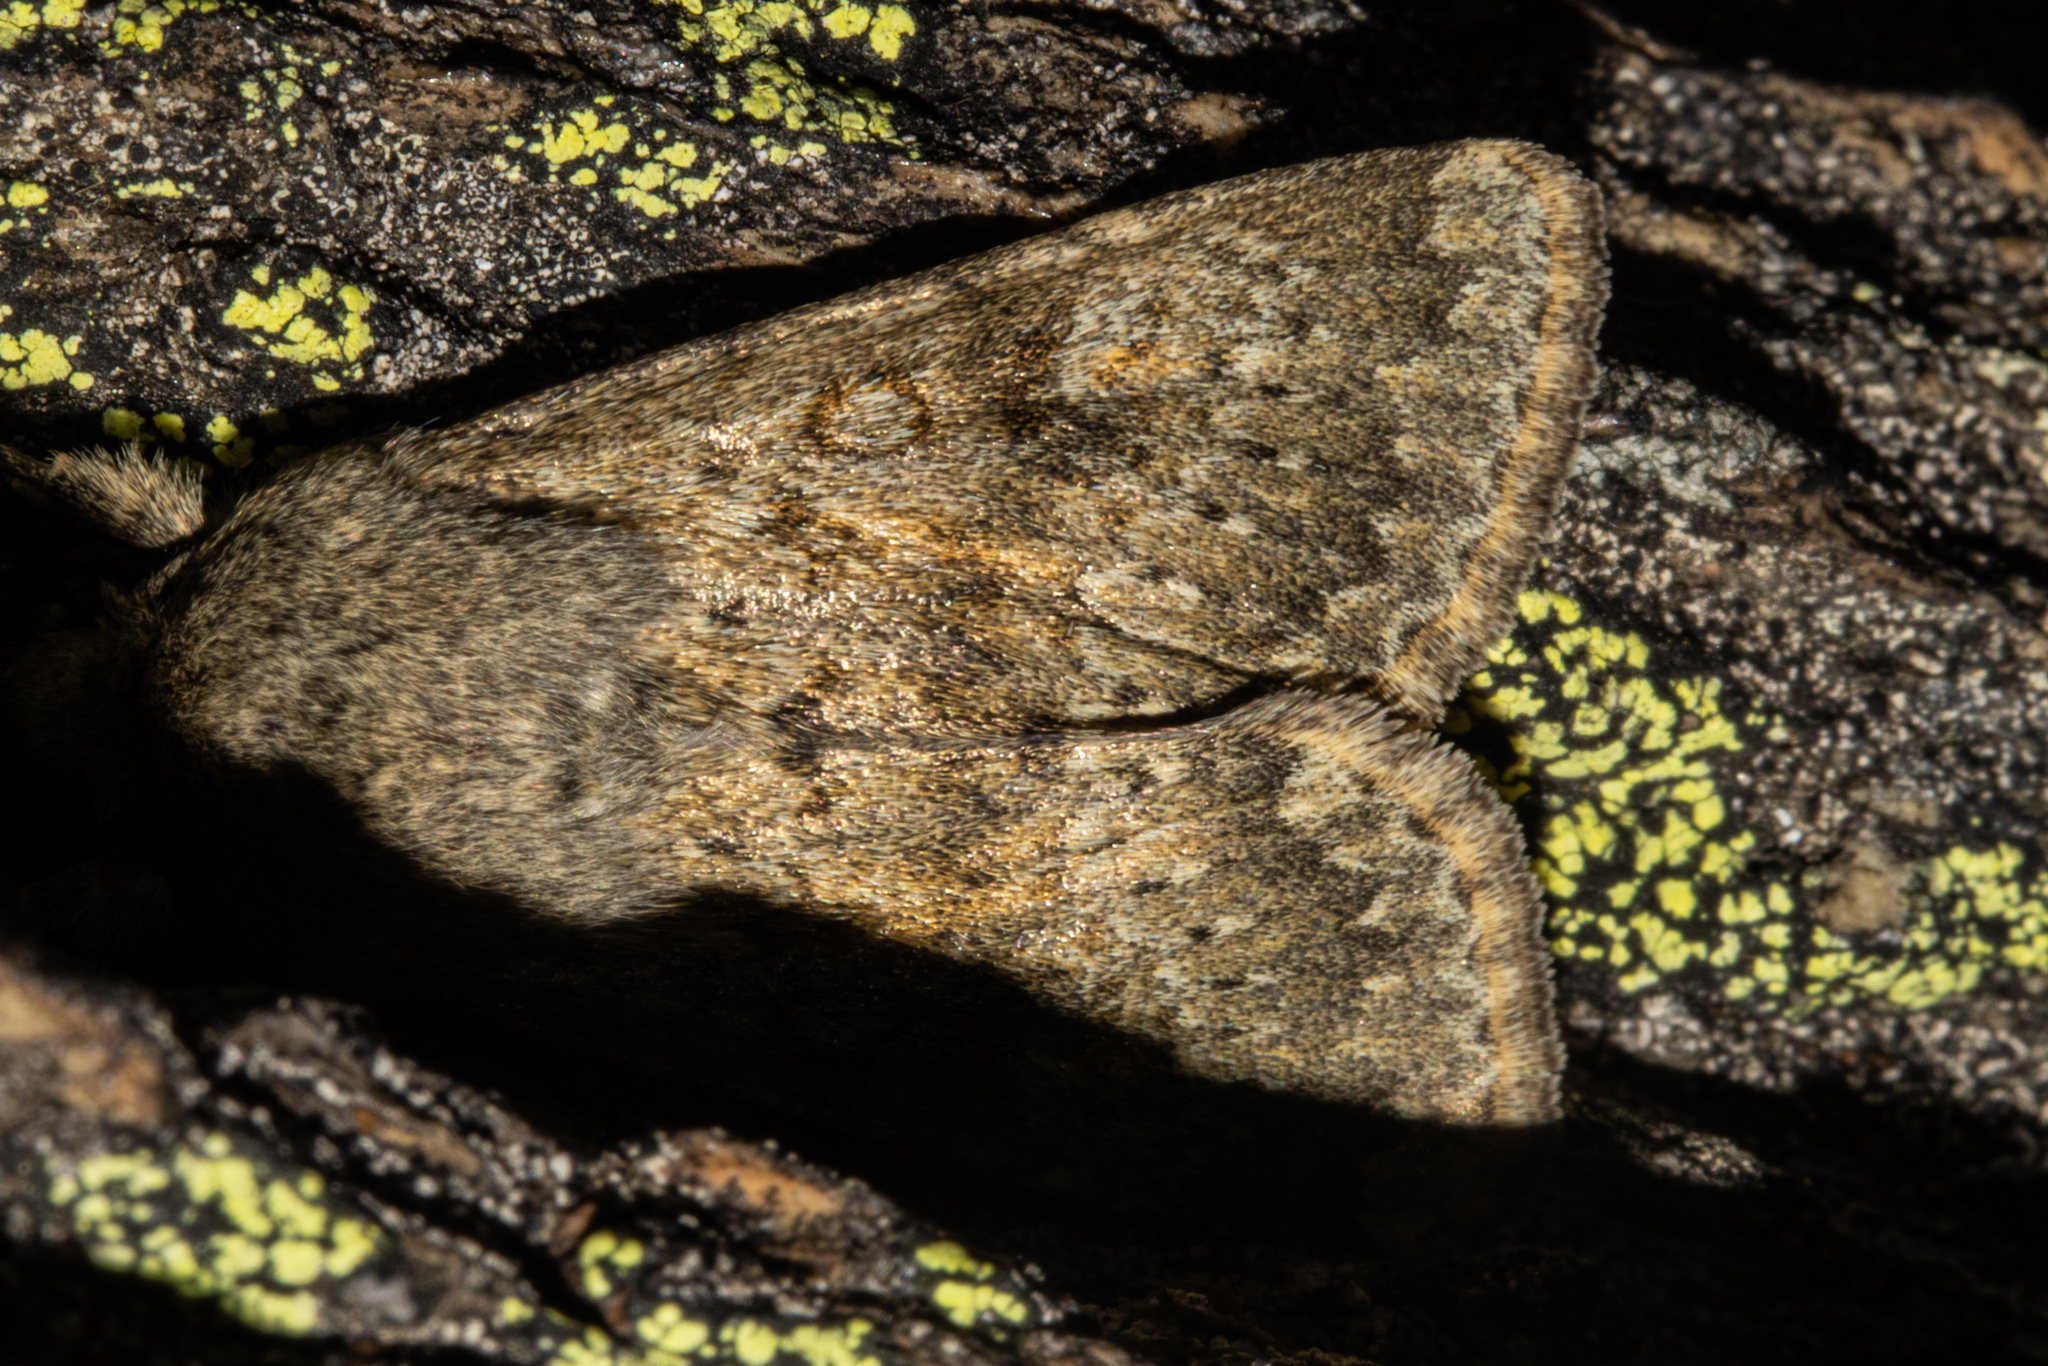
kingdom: Animalia
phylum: Arthropoda
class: Insecta
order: Lepidoptera
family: Noctuidae
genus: Ichneutica
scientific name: Ichneutica moderata
